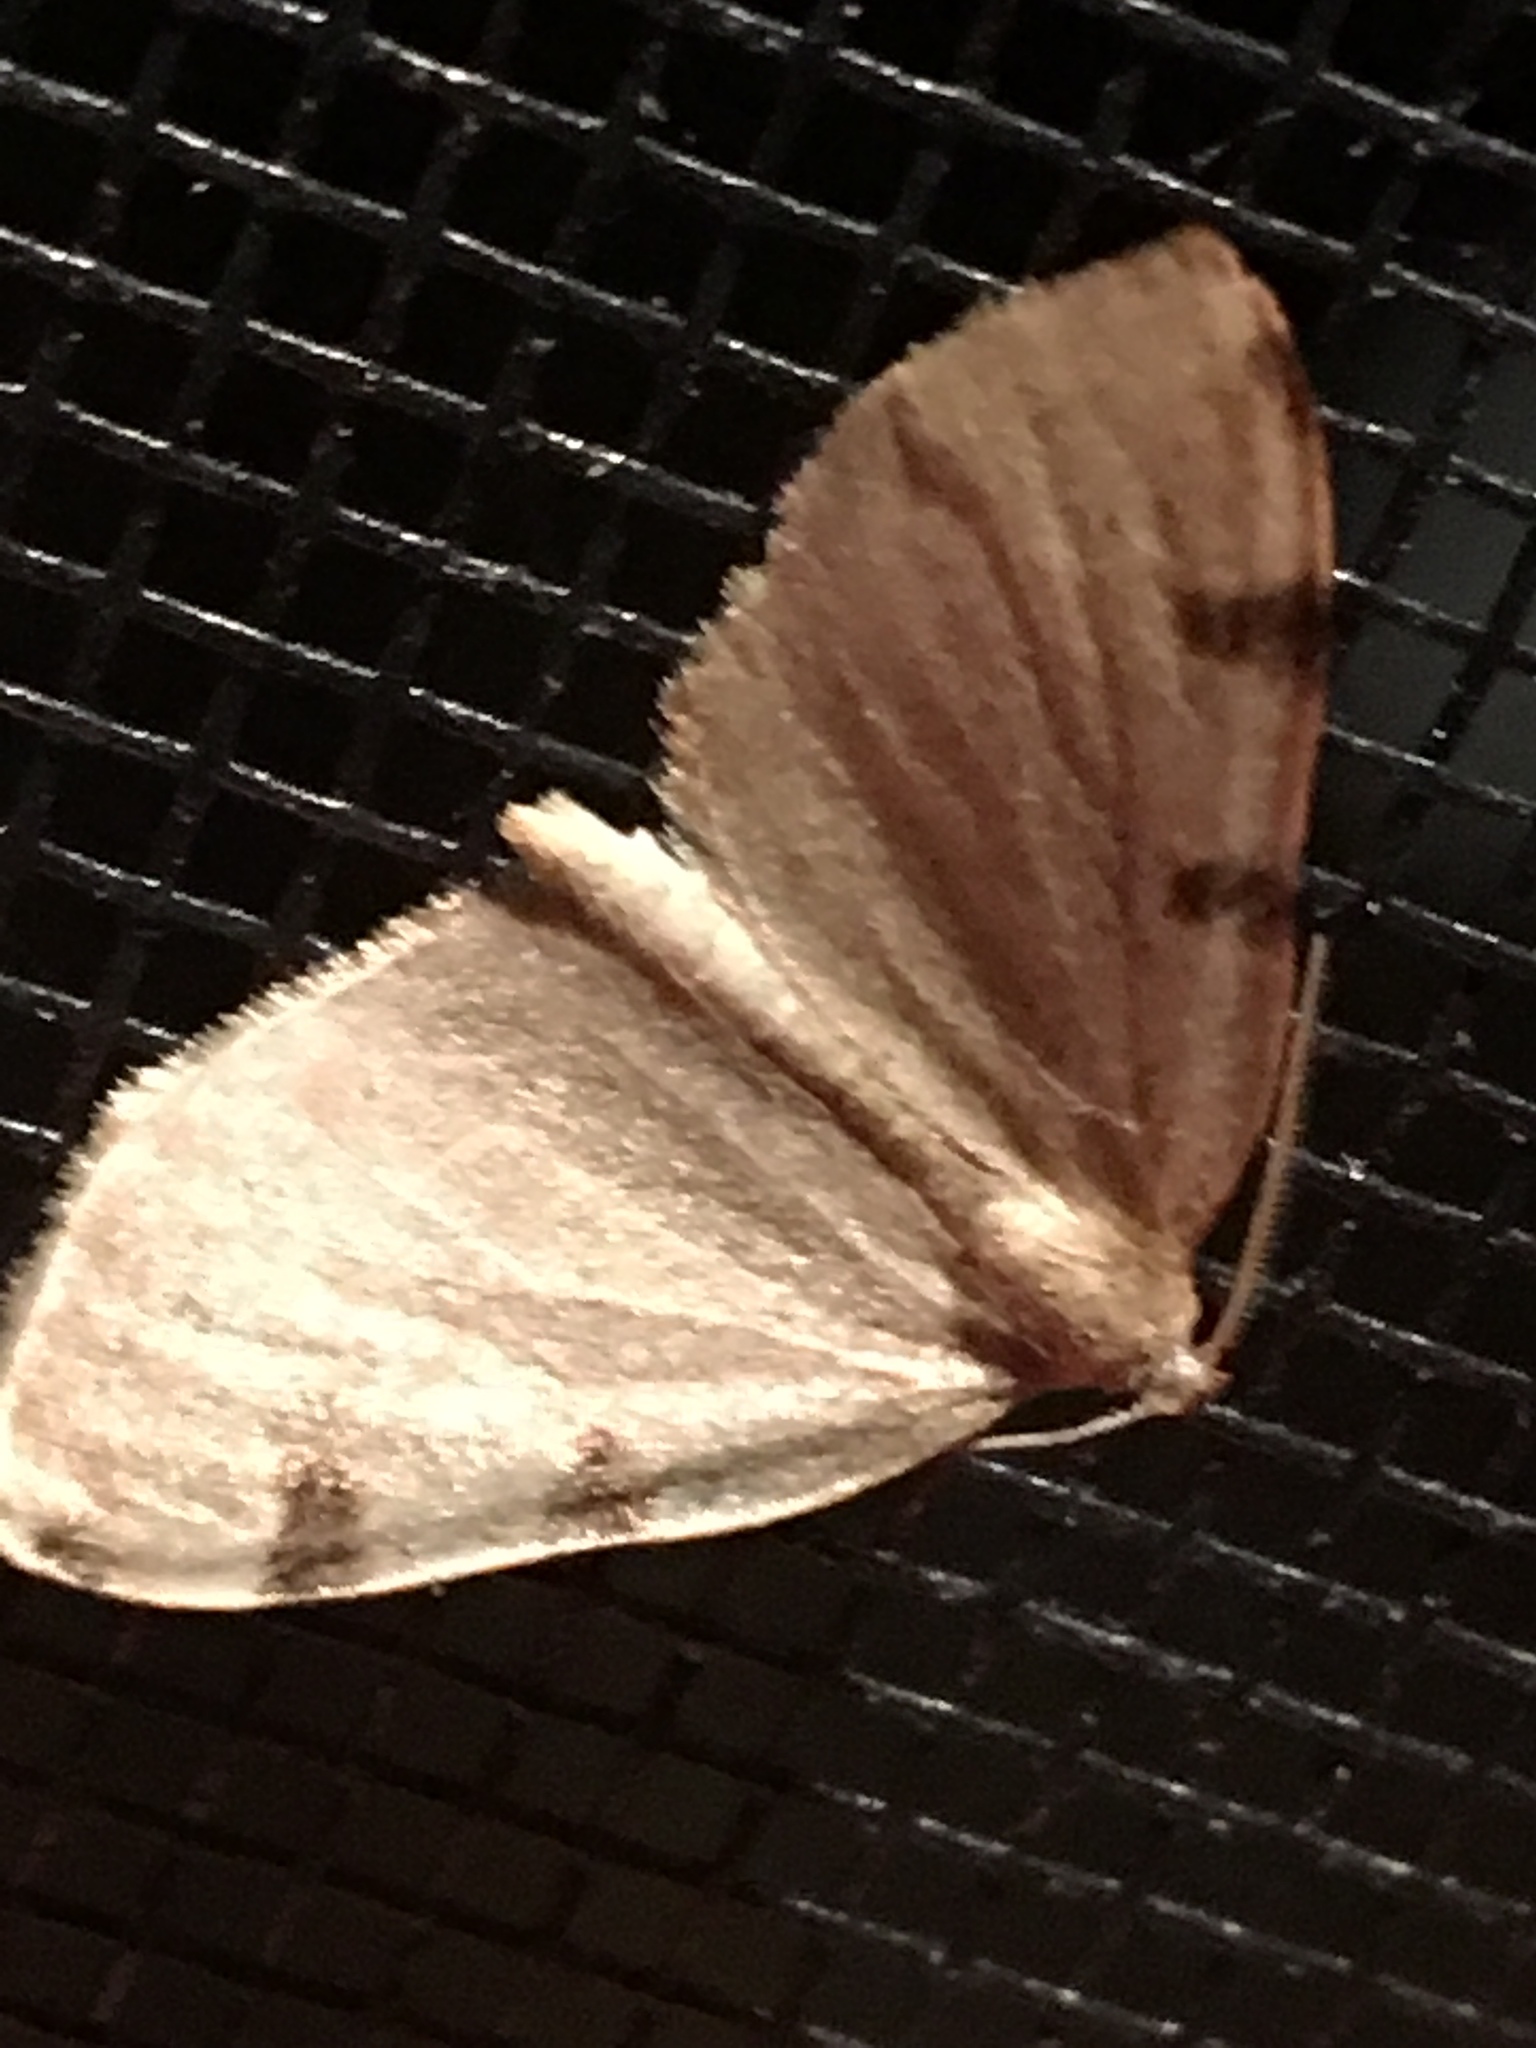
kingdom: Animalia
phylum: Arthropoda
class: Insecta
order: Lepidoptera
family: Geometridae
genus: Heterophleps
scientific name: Heterophleps triguttaria
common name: Three-spotted fillip
